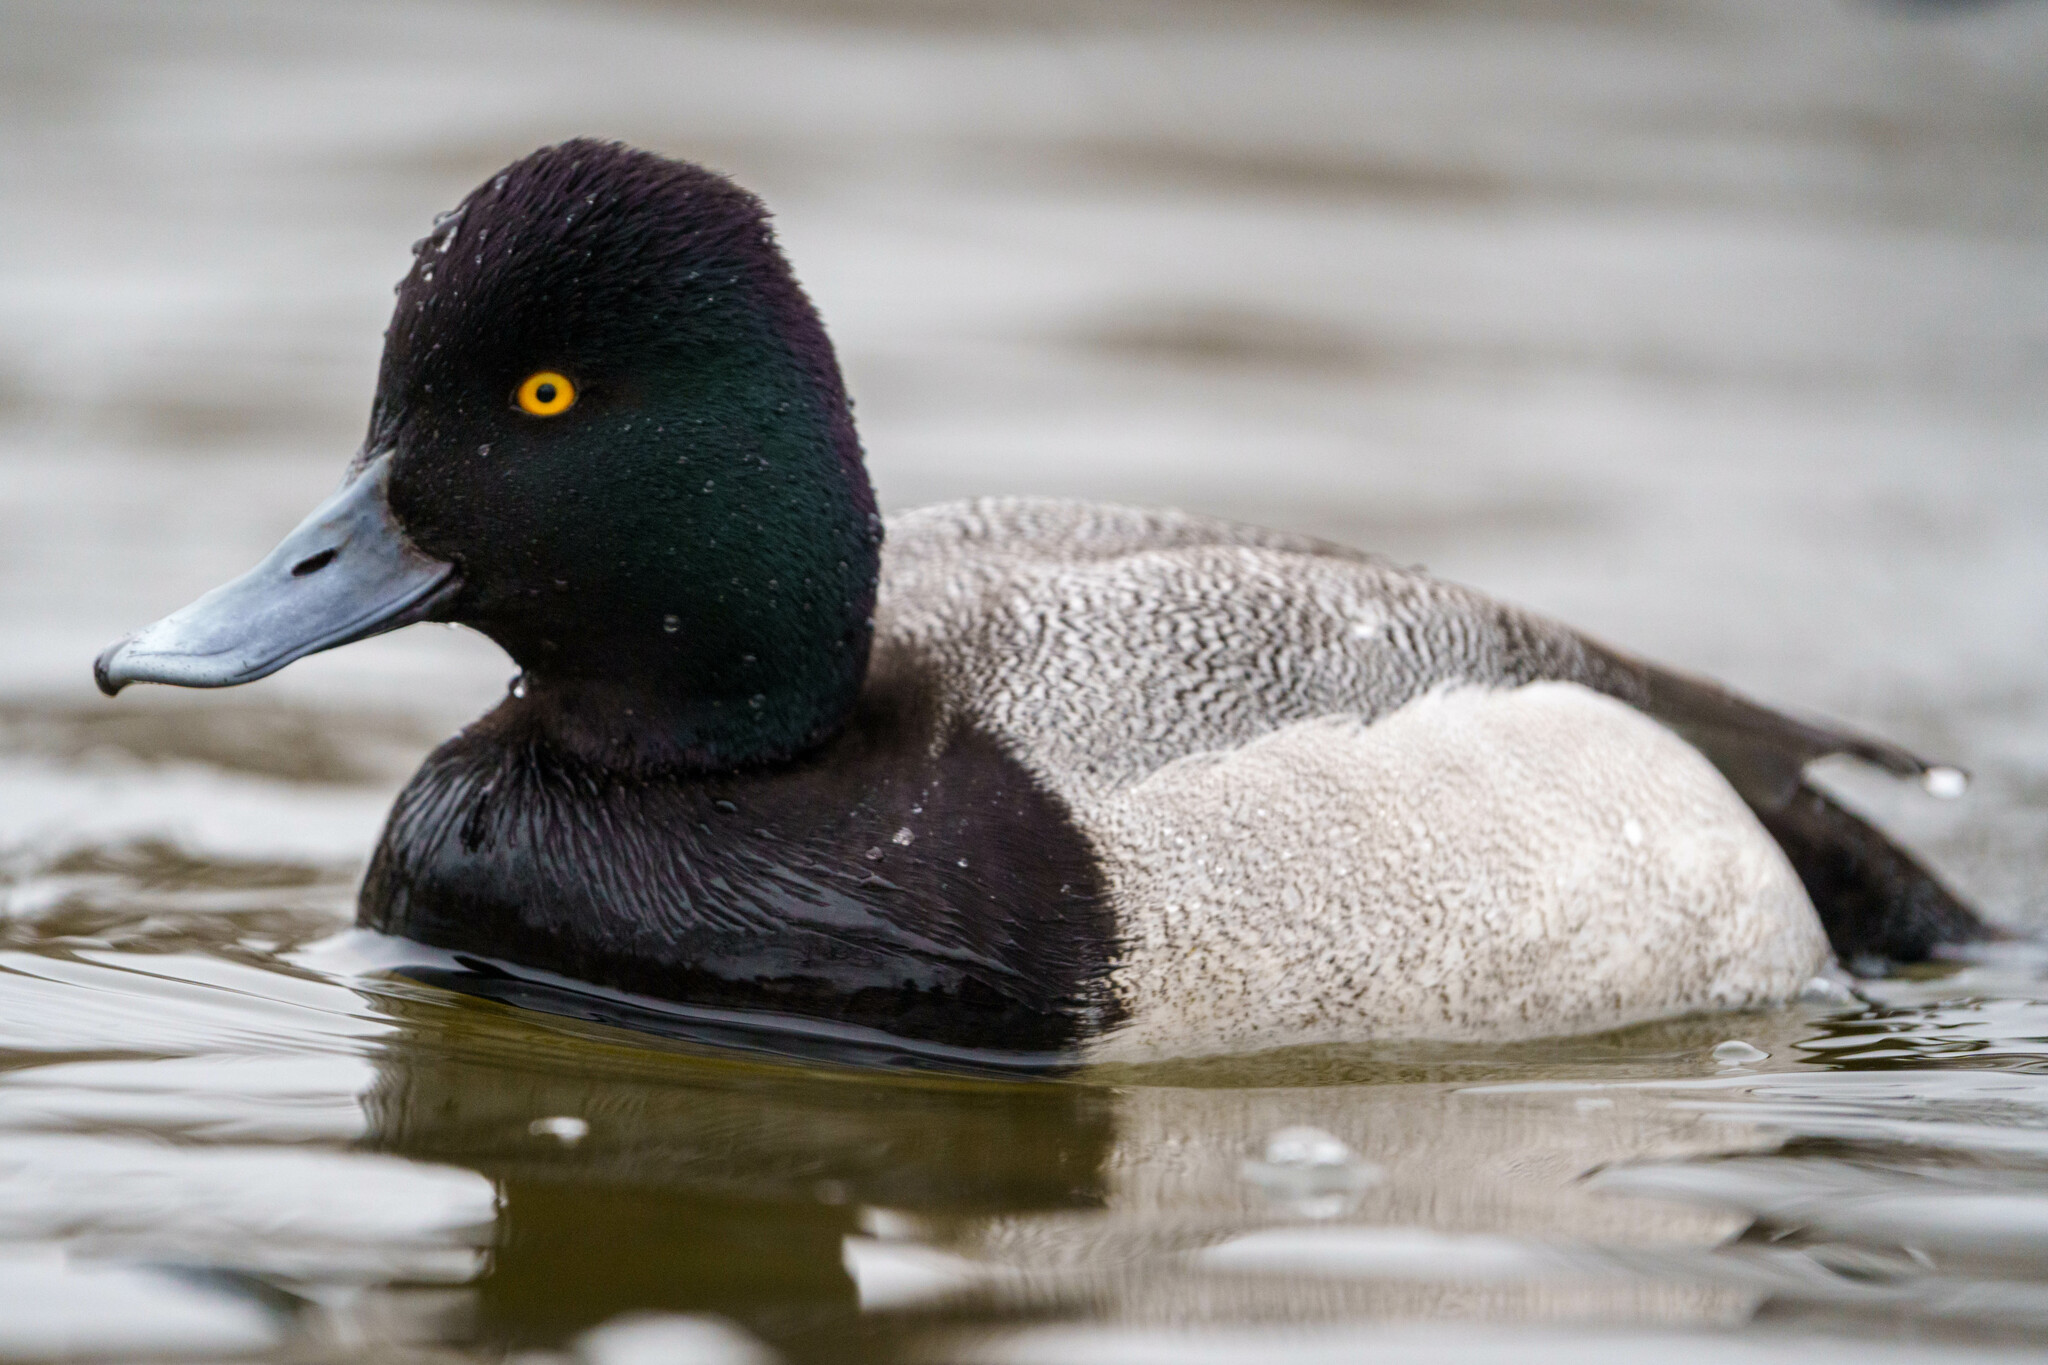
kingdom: Animalia
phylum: Chordata
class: Aves
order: Anseriformes
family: Anatidae
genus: Aythya
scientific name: Aythya affinis
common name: Lesser scaup
